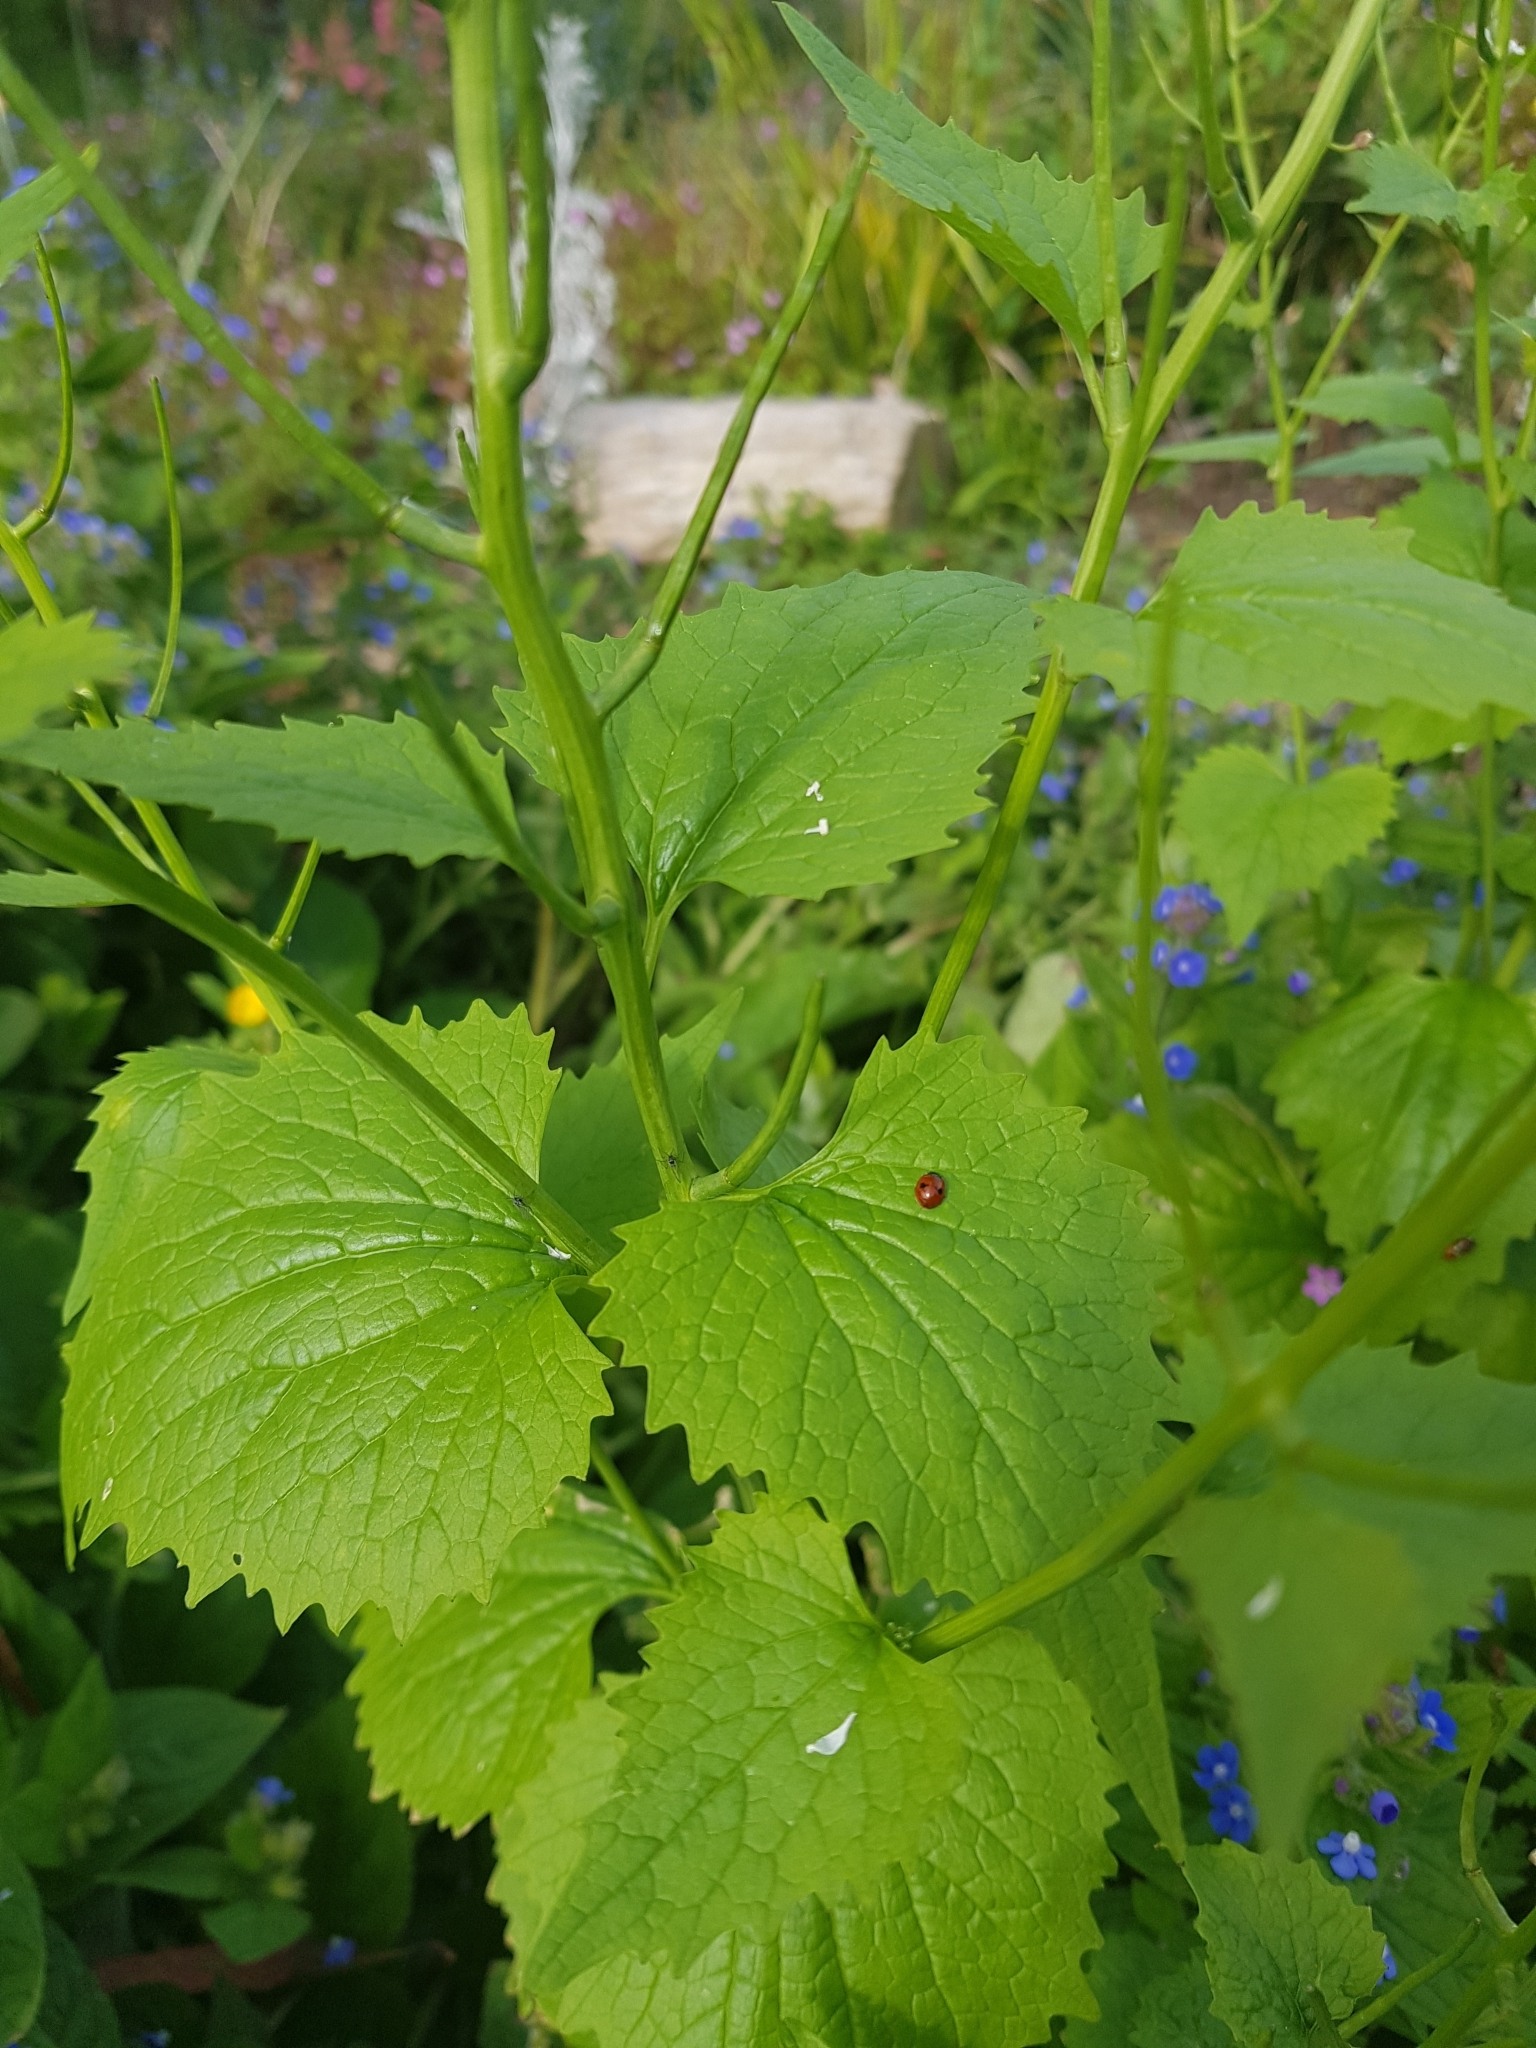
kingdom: Animalia
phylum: Arthropoda
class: Insecta
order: Coleoptera
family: Coccinellidae
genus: Adalia
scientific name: Adalia bipunctata
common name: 2-spot ladybird
